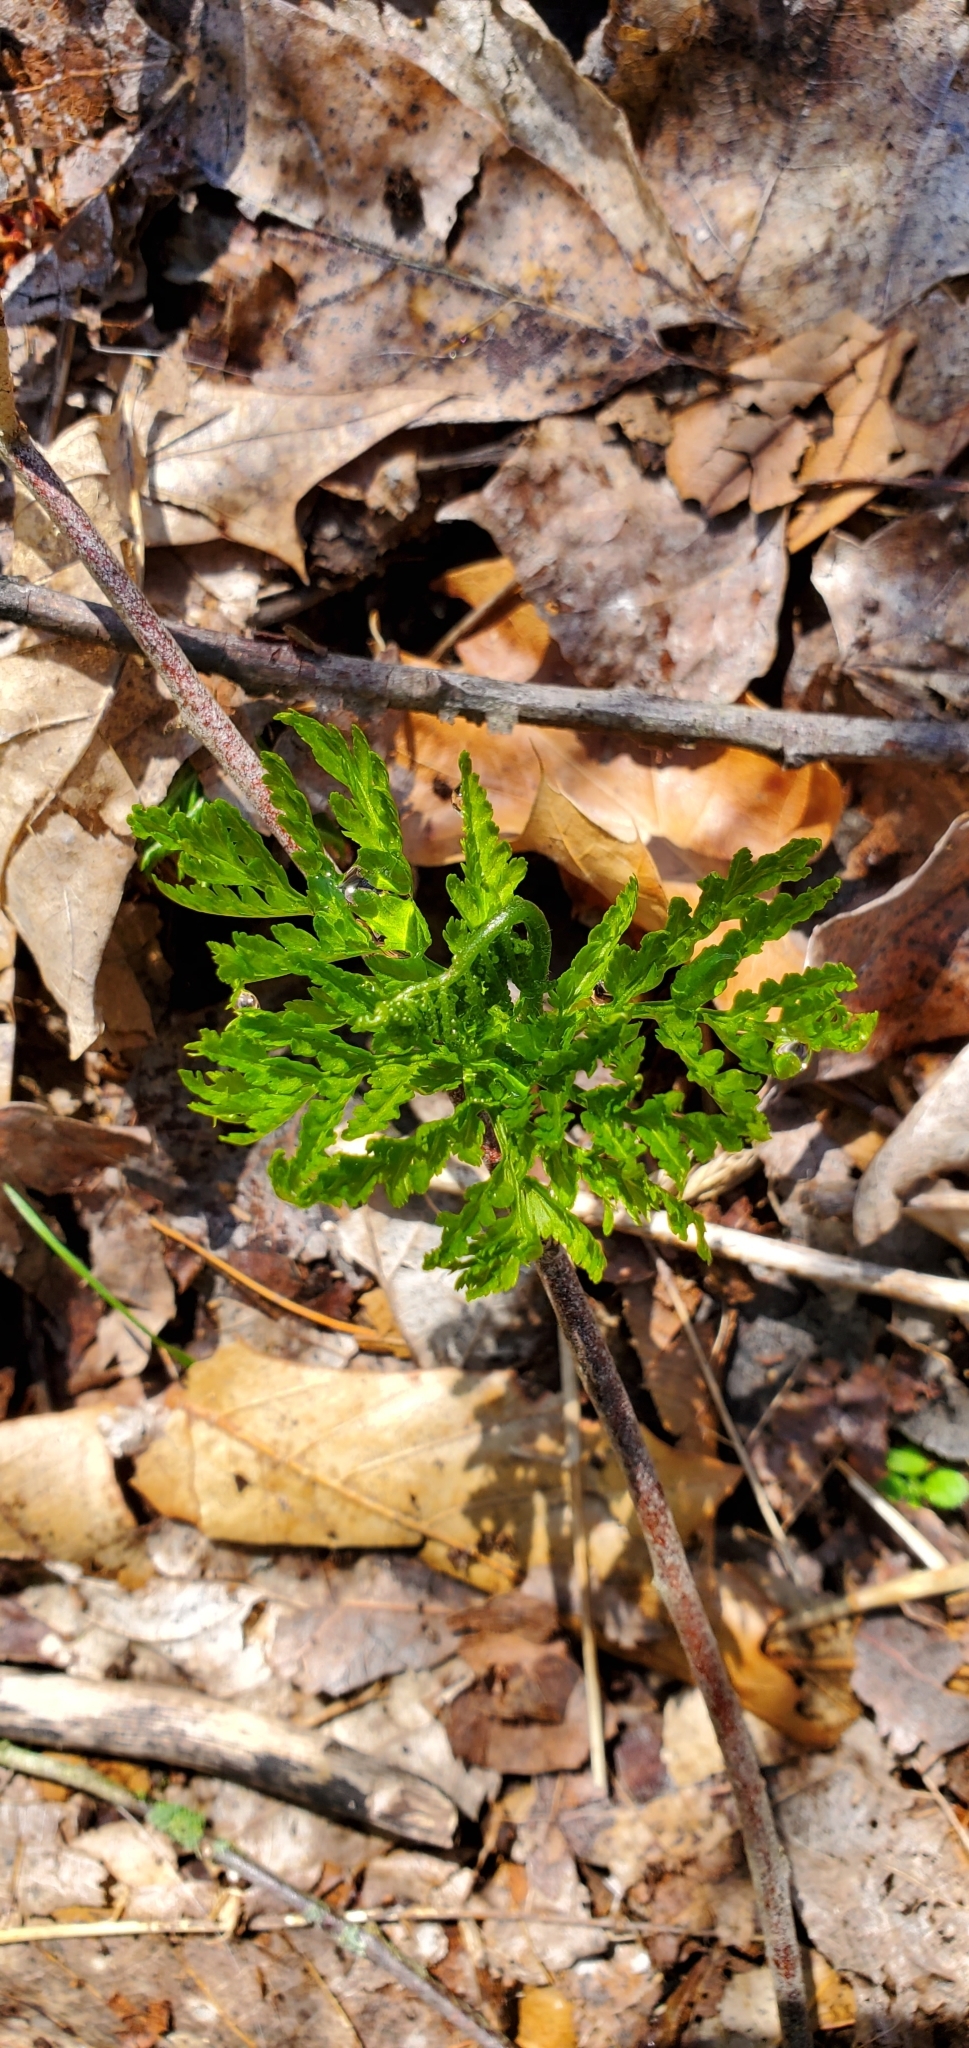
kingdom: Plantae
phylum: Tracheophyta
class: Polypodiopsida
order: Ophioglossales
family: Ophioglossaceae
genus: Botrypus
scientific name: Botrypus virginianus
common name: Common grapefern
